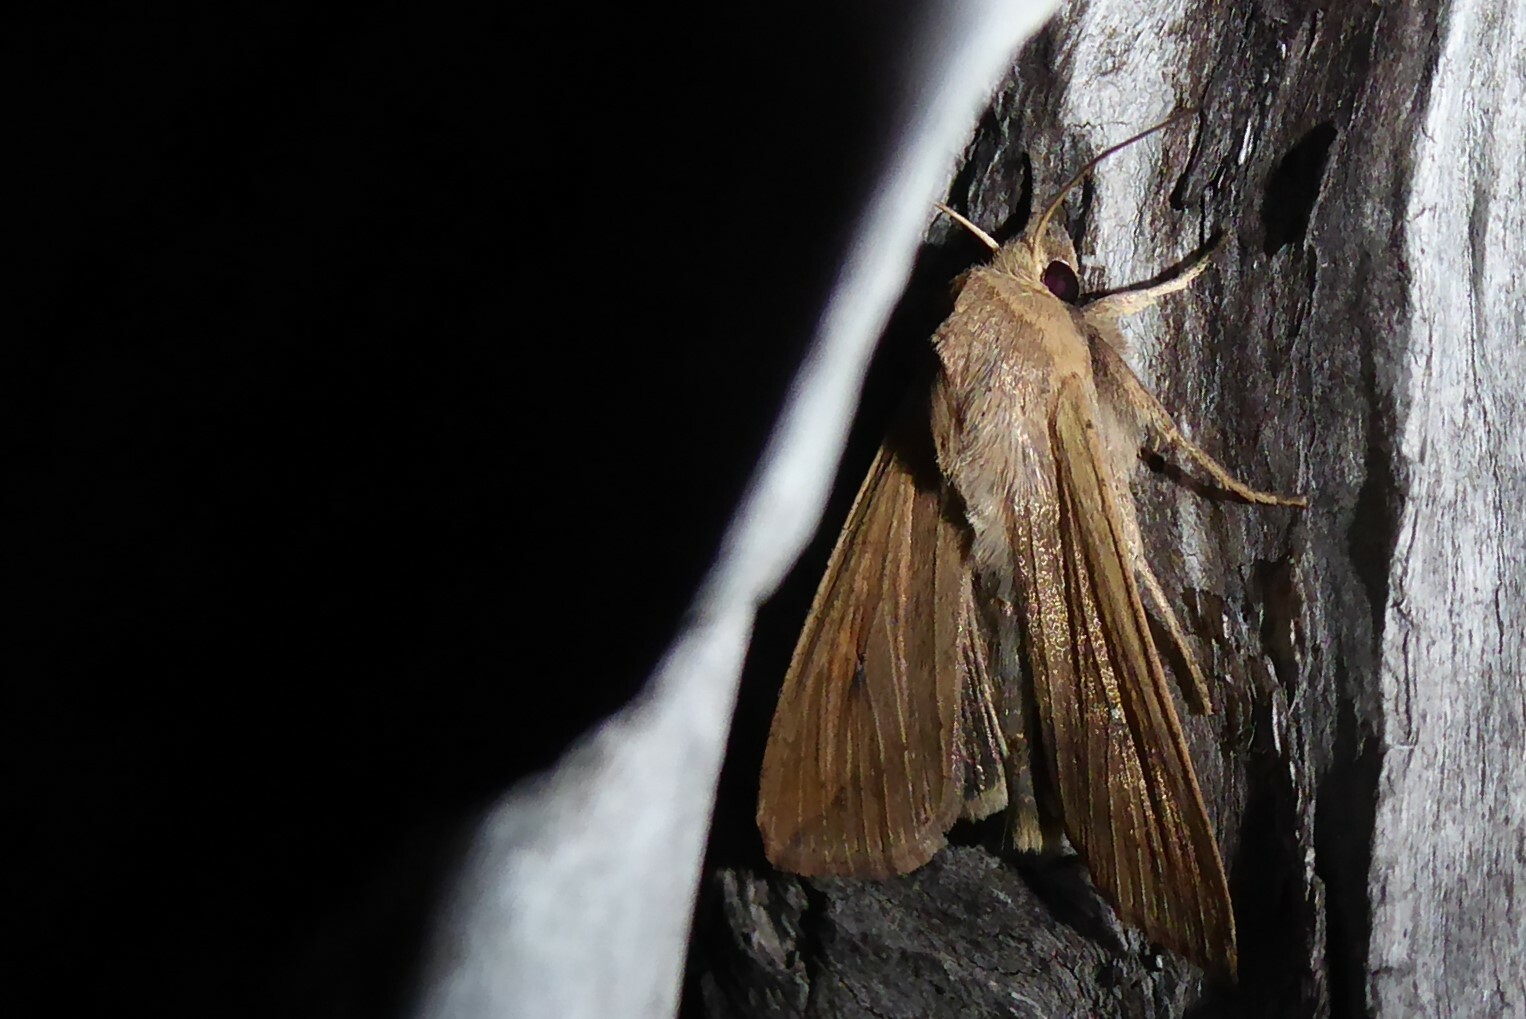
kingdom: Animalia
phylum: Arthropoda
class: Insecta
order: Lepidoptera
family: Noctuidae
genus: Mythimna
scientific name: Mythimna separata
